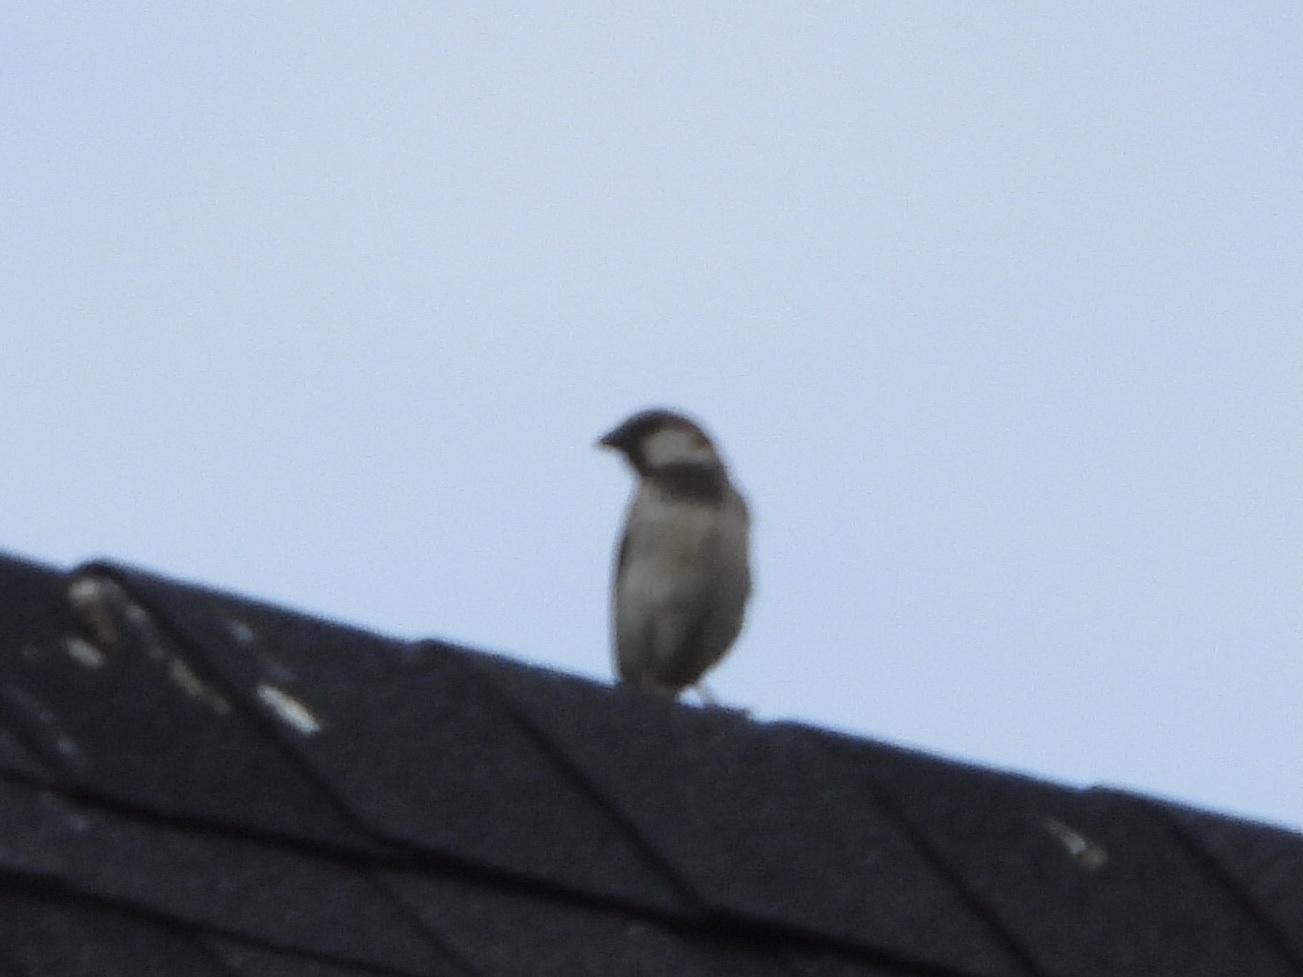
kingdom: Animalia
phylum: Chordata
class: Aves
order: Passeriformes
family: Passeridae
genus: Passer
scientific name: Passer domesticus
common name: House sparrow
